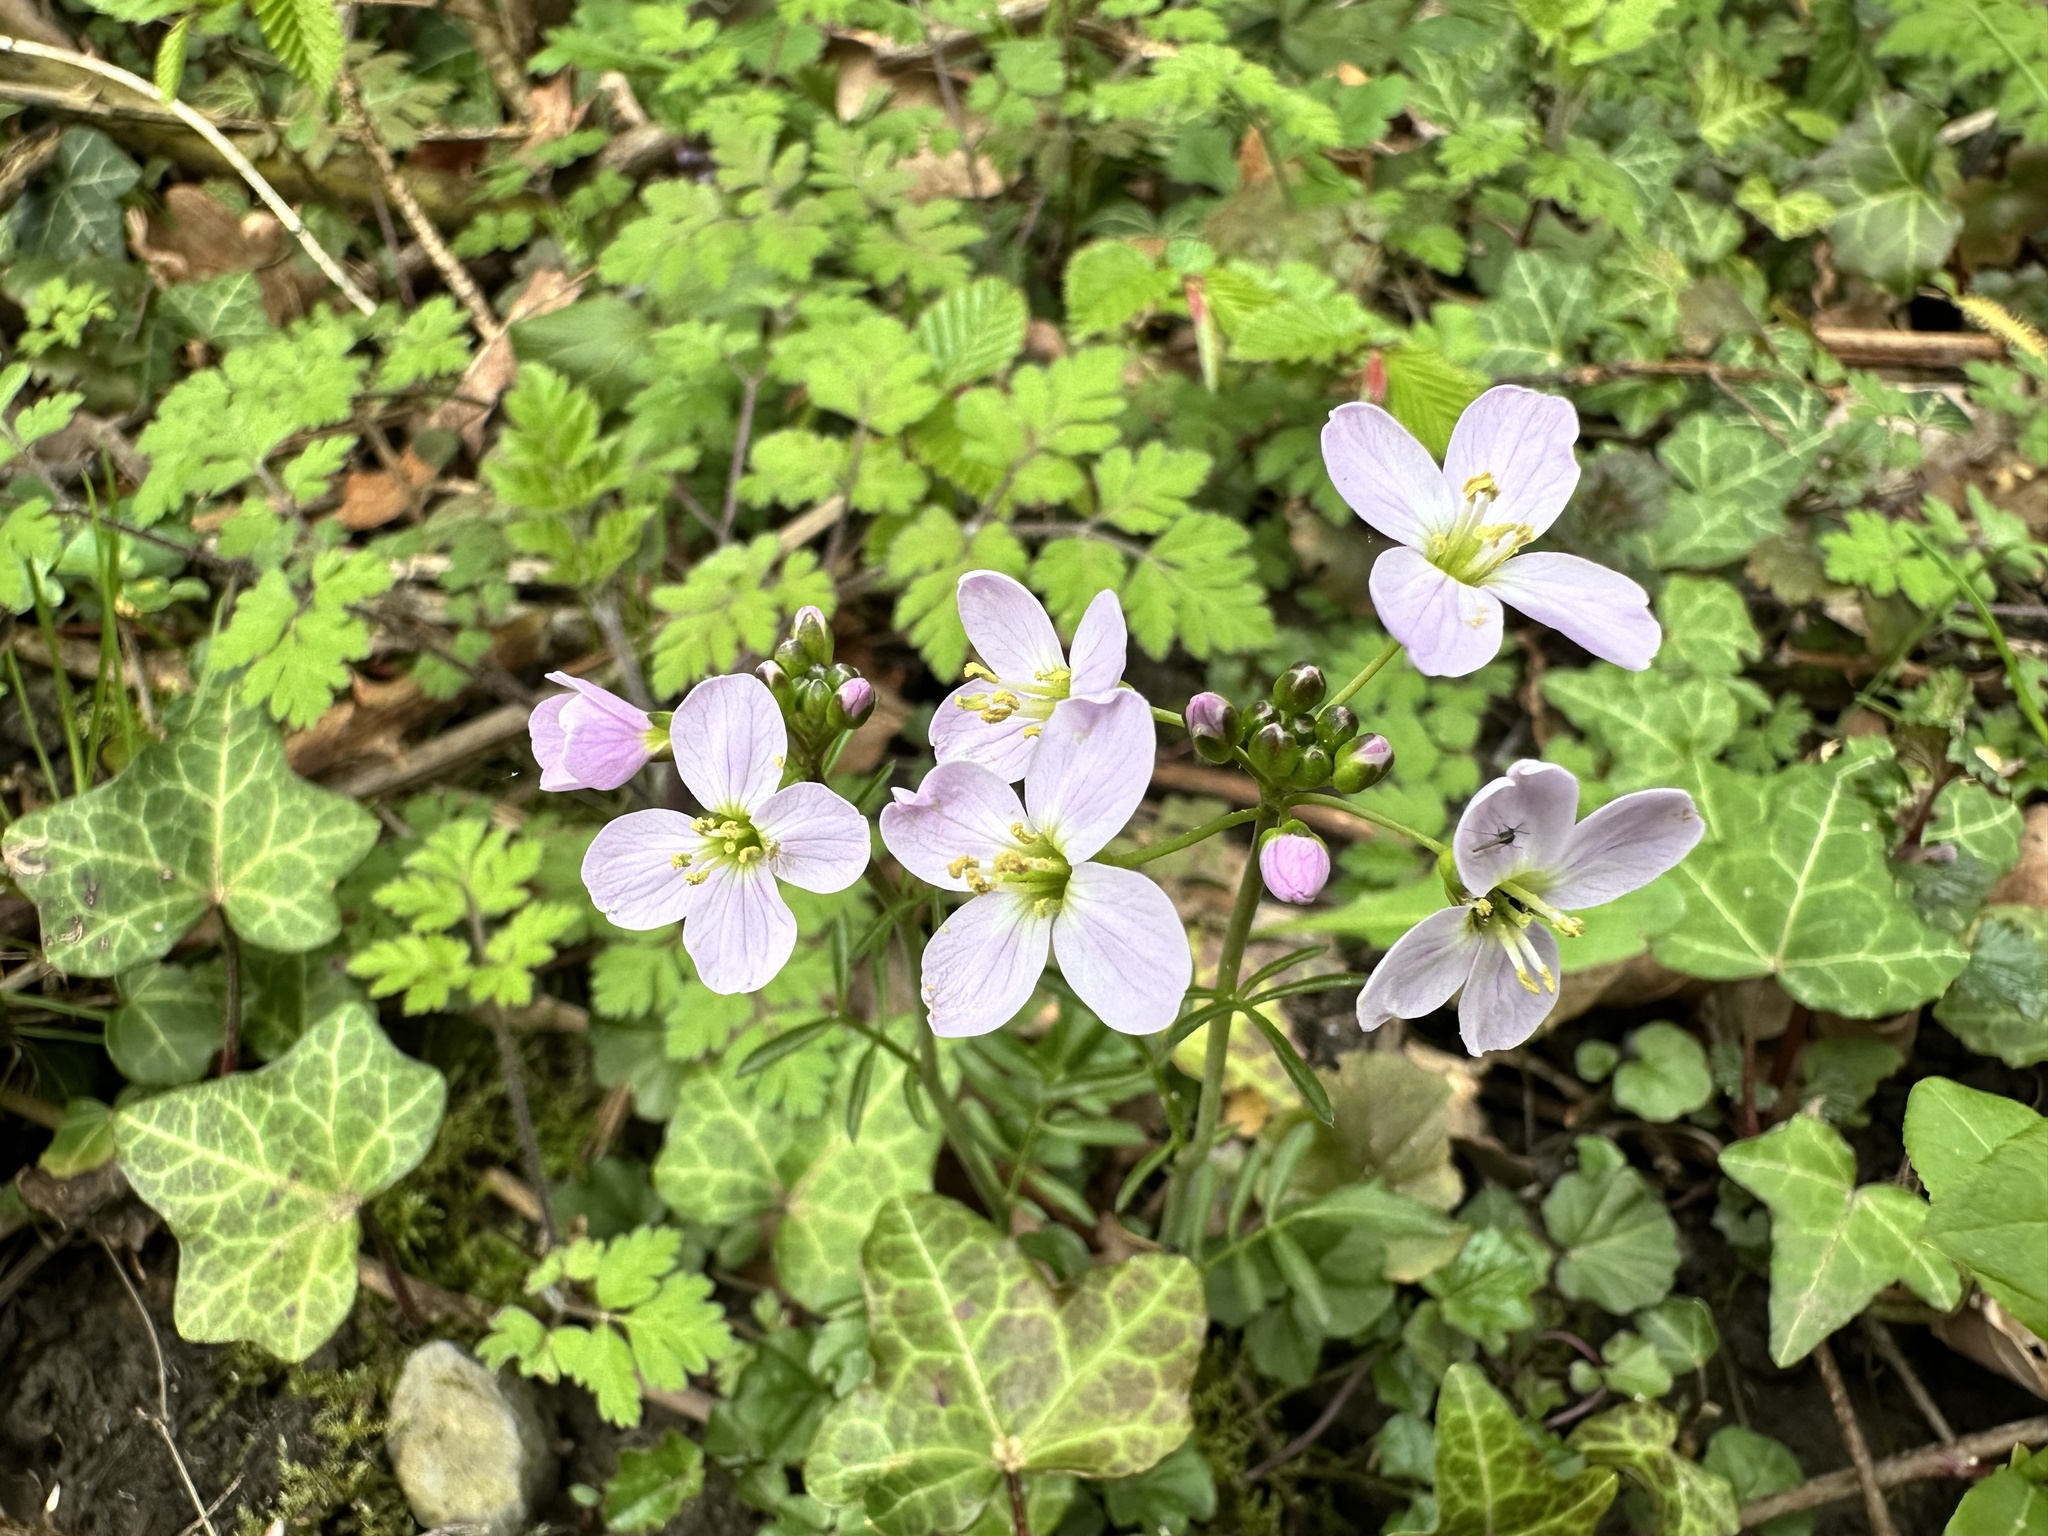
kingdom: Plantae
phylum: Tracheophyta
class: Magnoliopsida
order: Brassicales
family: Brassicaceae
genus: Cardamine
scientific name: Cardamine pratensis
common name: Cuckoo flower
